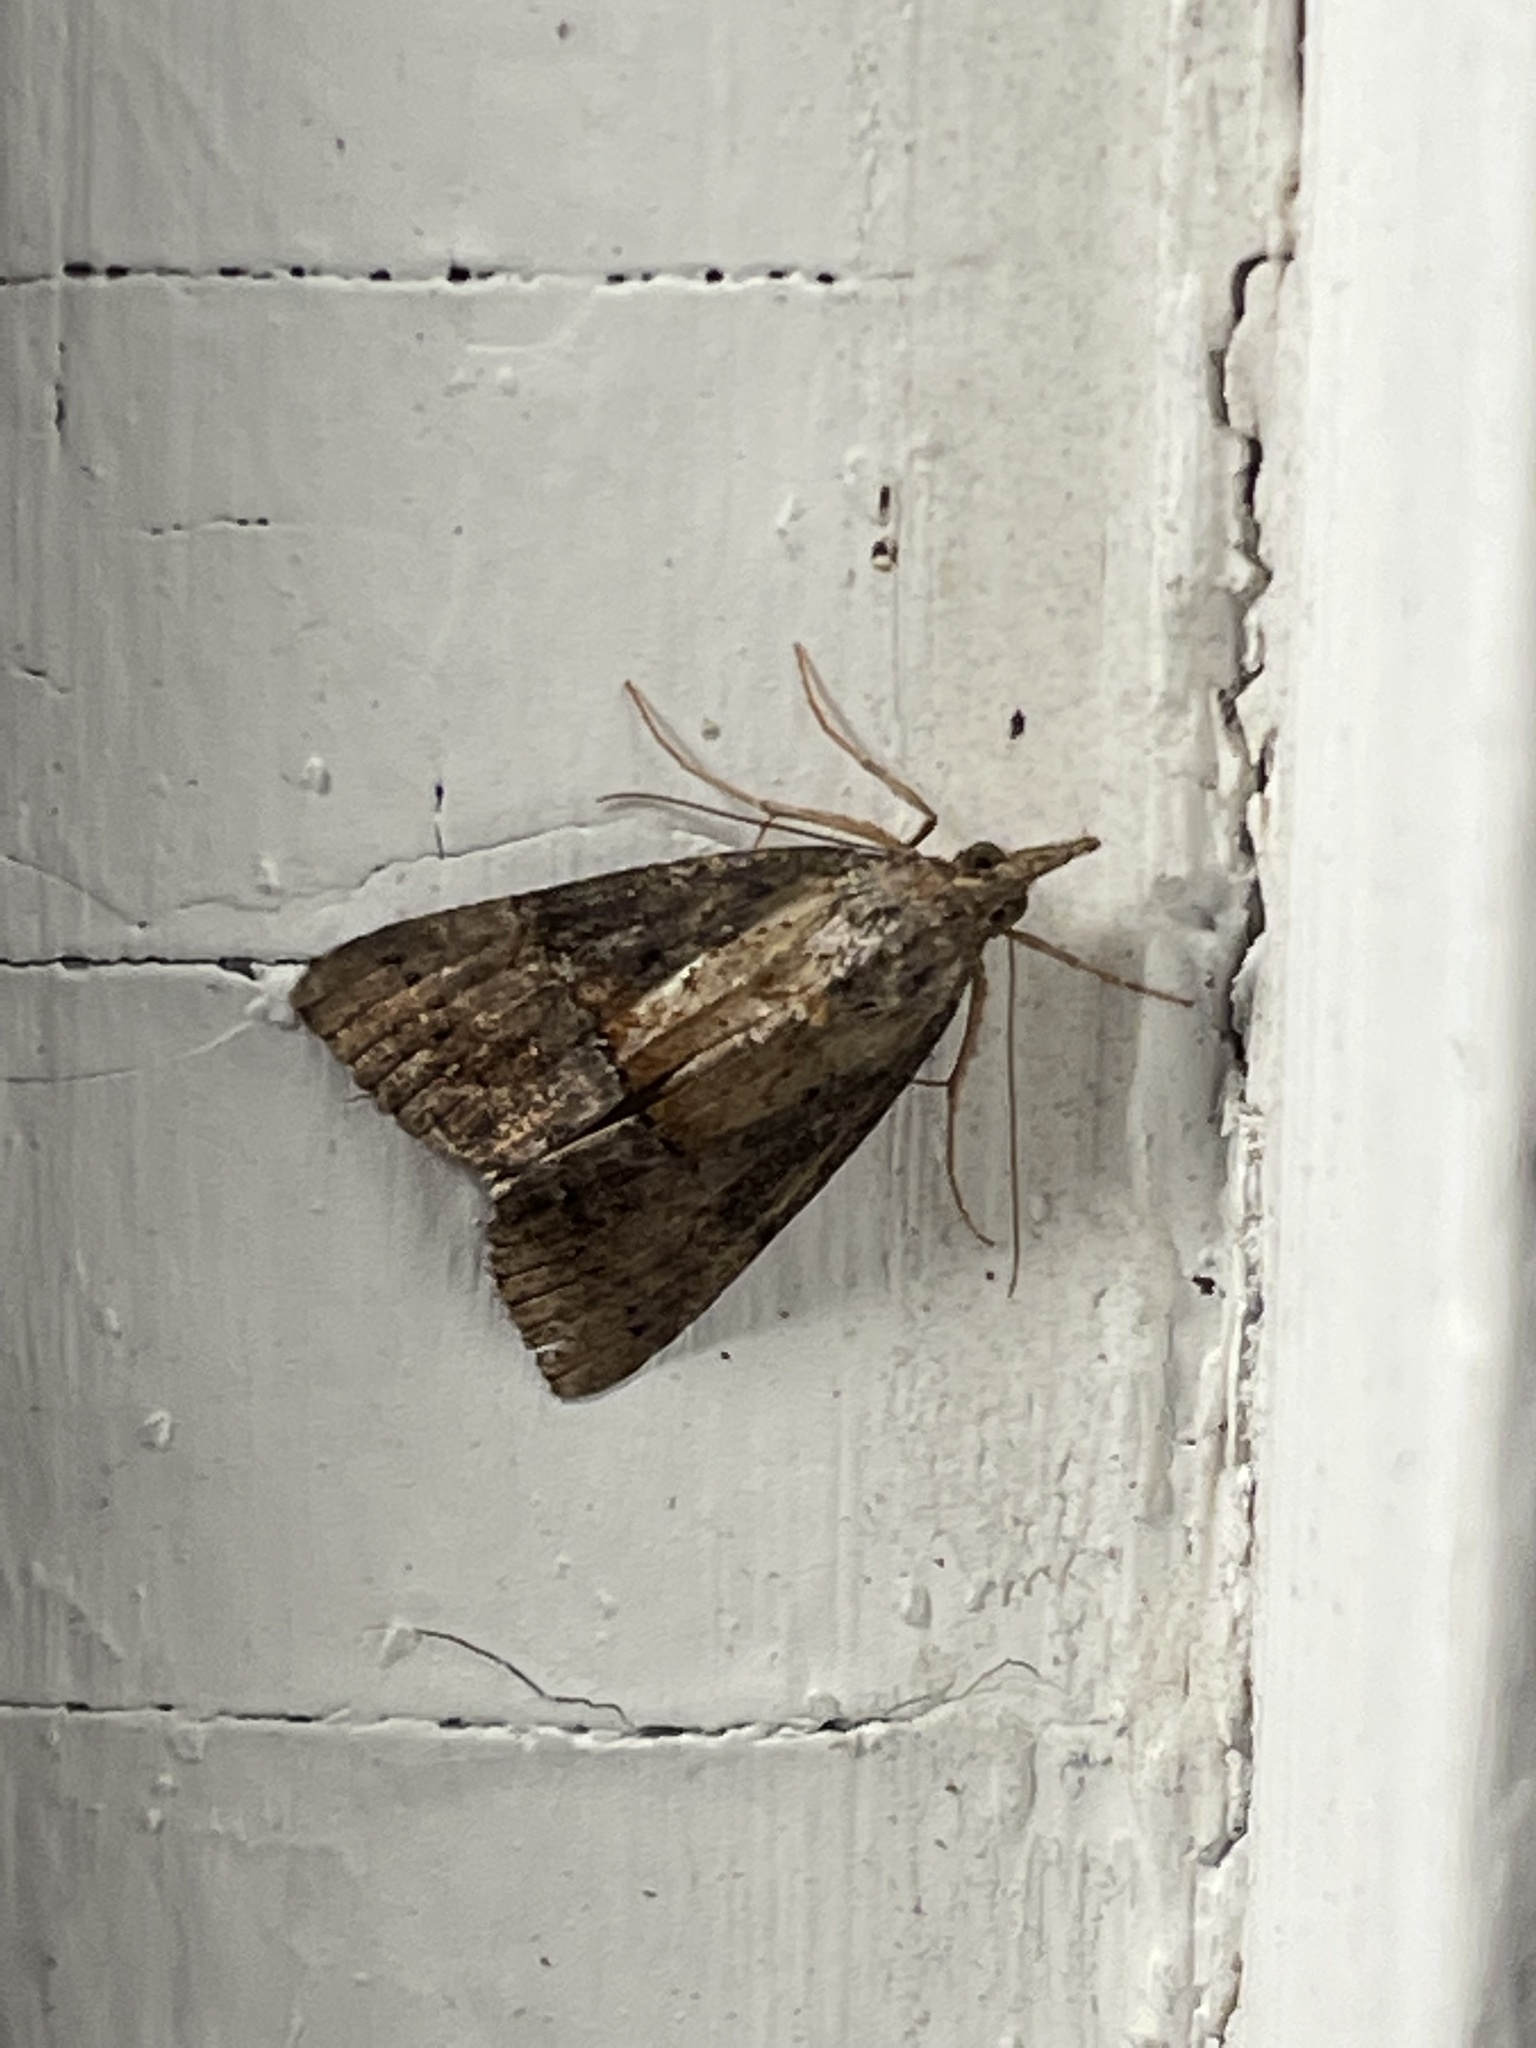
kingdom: Animalia
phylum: Arthropoda
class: Insecta
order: Lepidoptera
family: Erebidae
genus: Hypena
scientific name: Hypena scabra
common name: Green cloverworm
